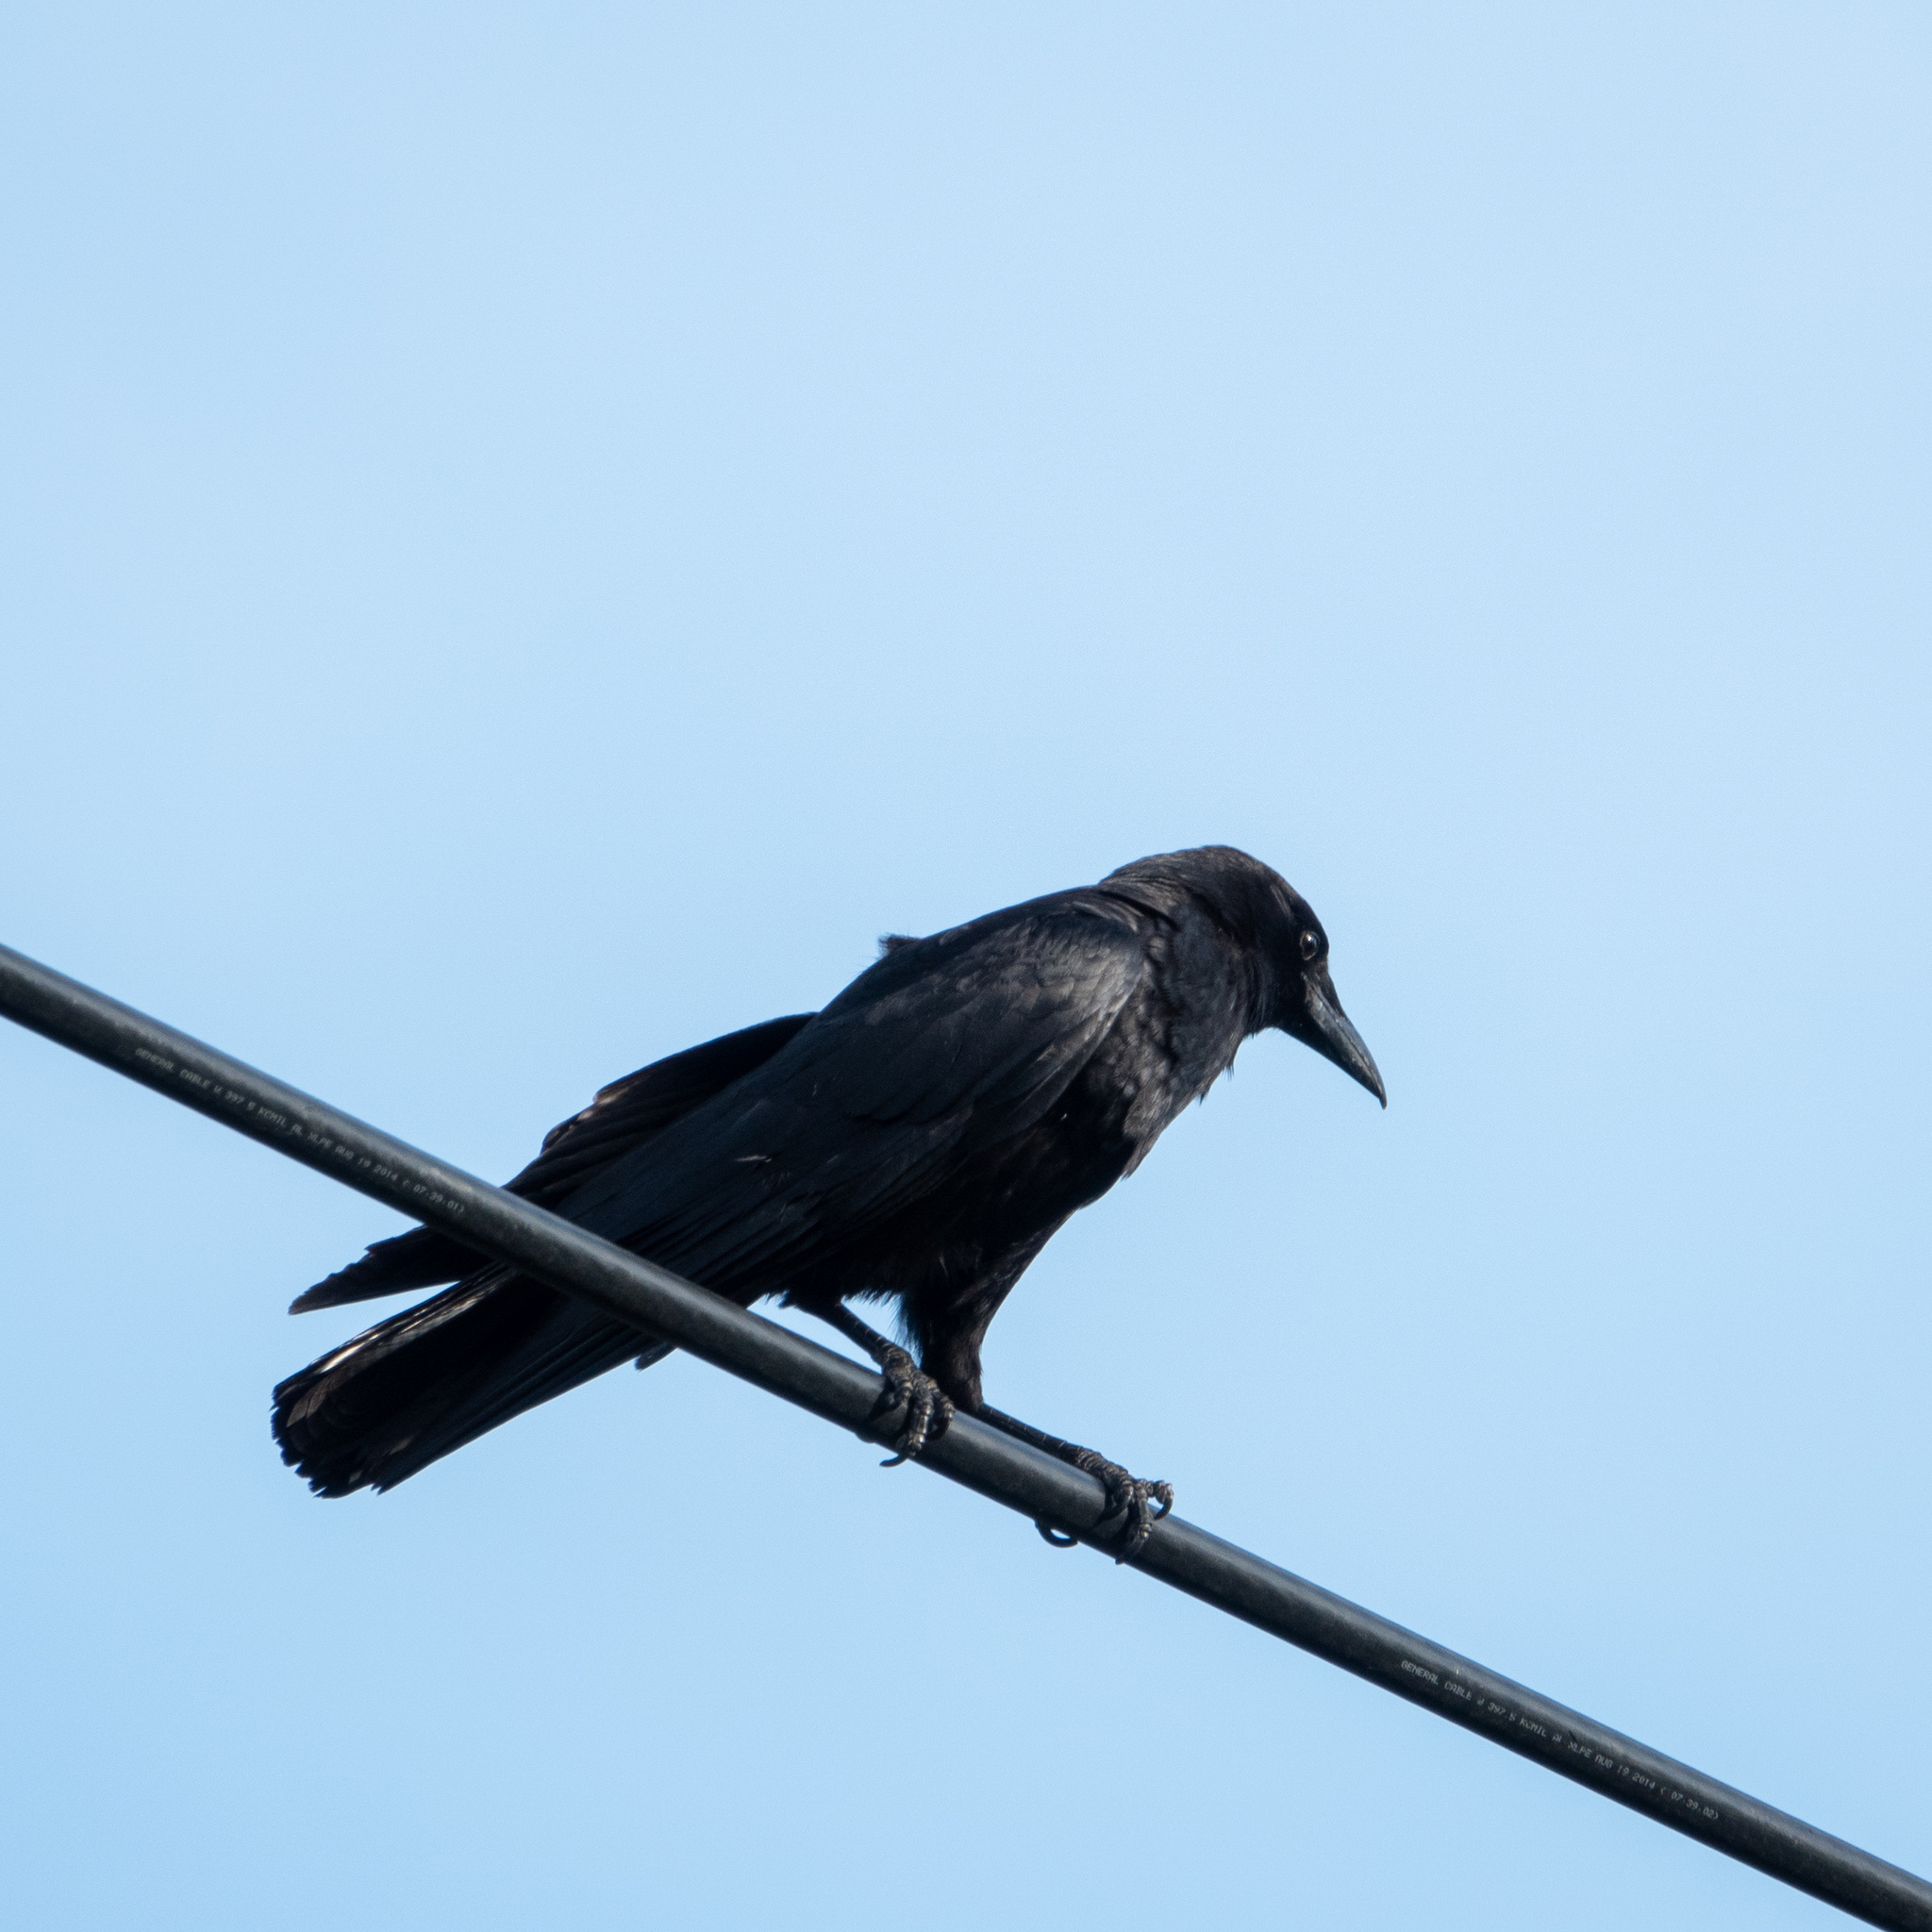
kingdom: Animalia
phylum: Chordata
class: Aves
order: Passeriformes
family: Corvidae
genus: Corvus
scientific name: Corvus brachyrhynchos
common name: American crow
